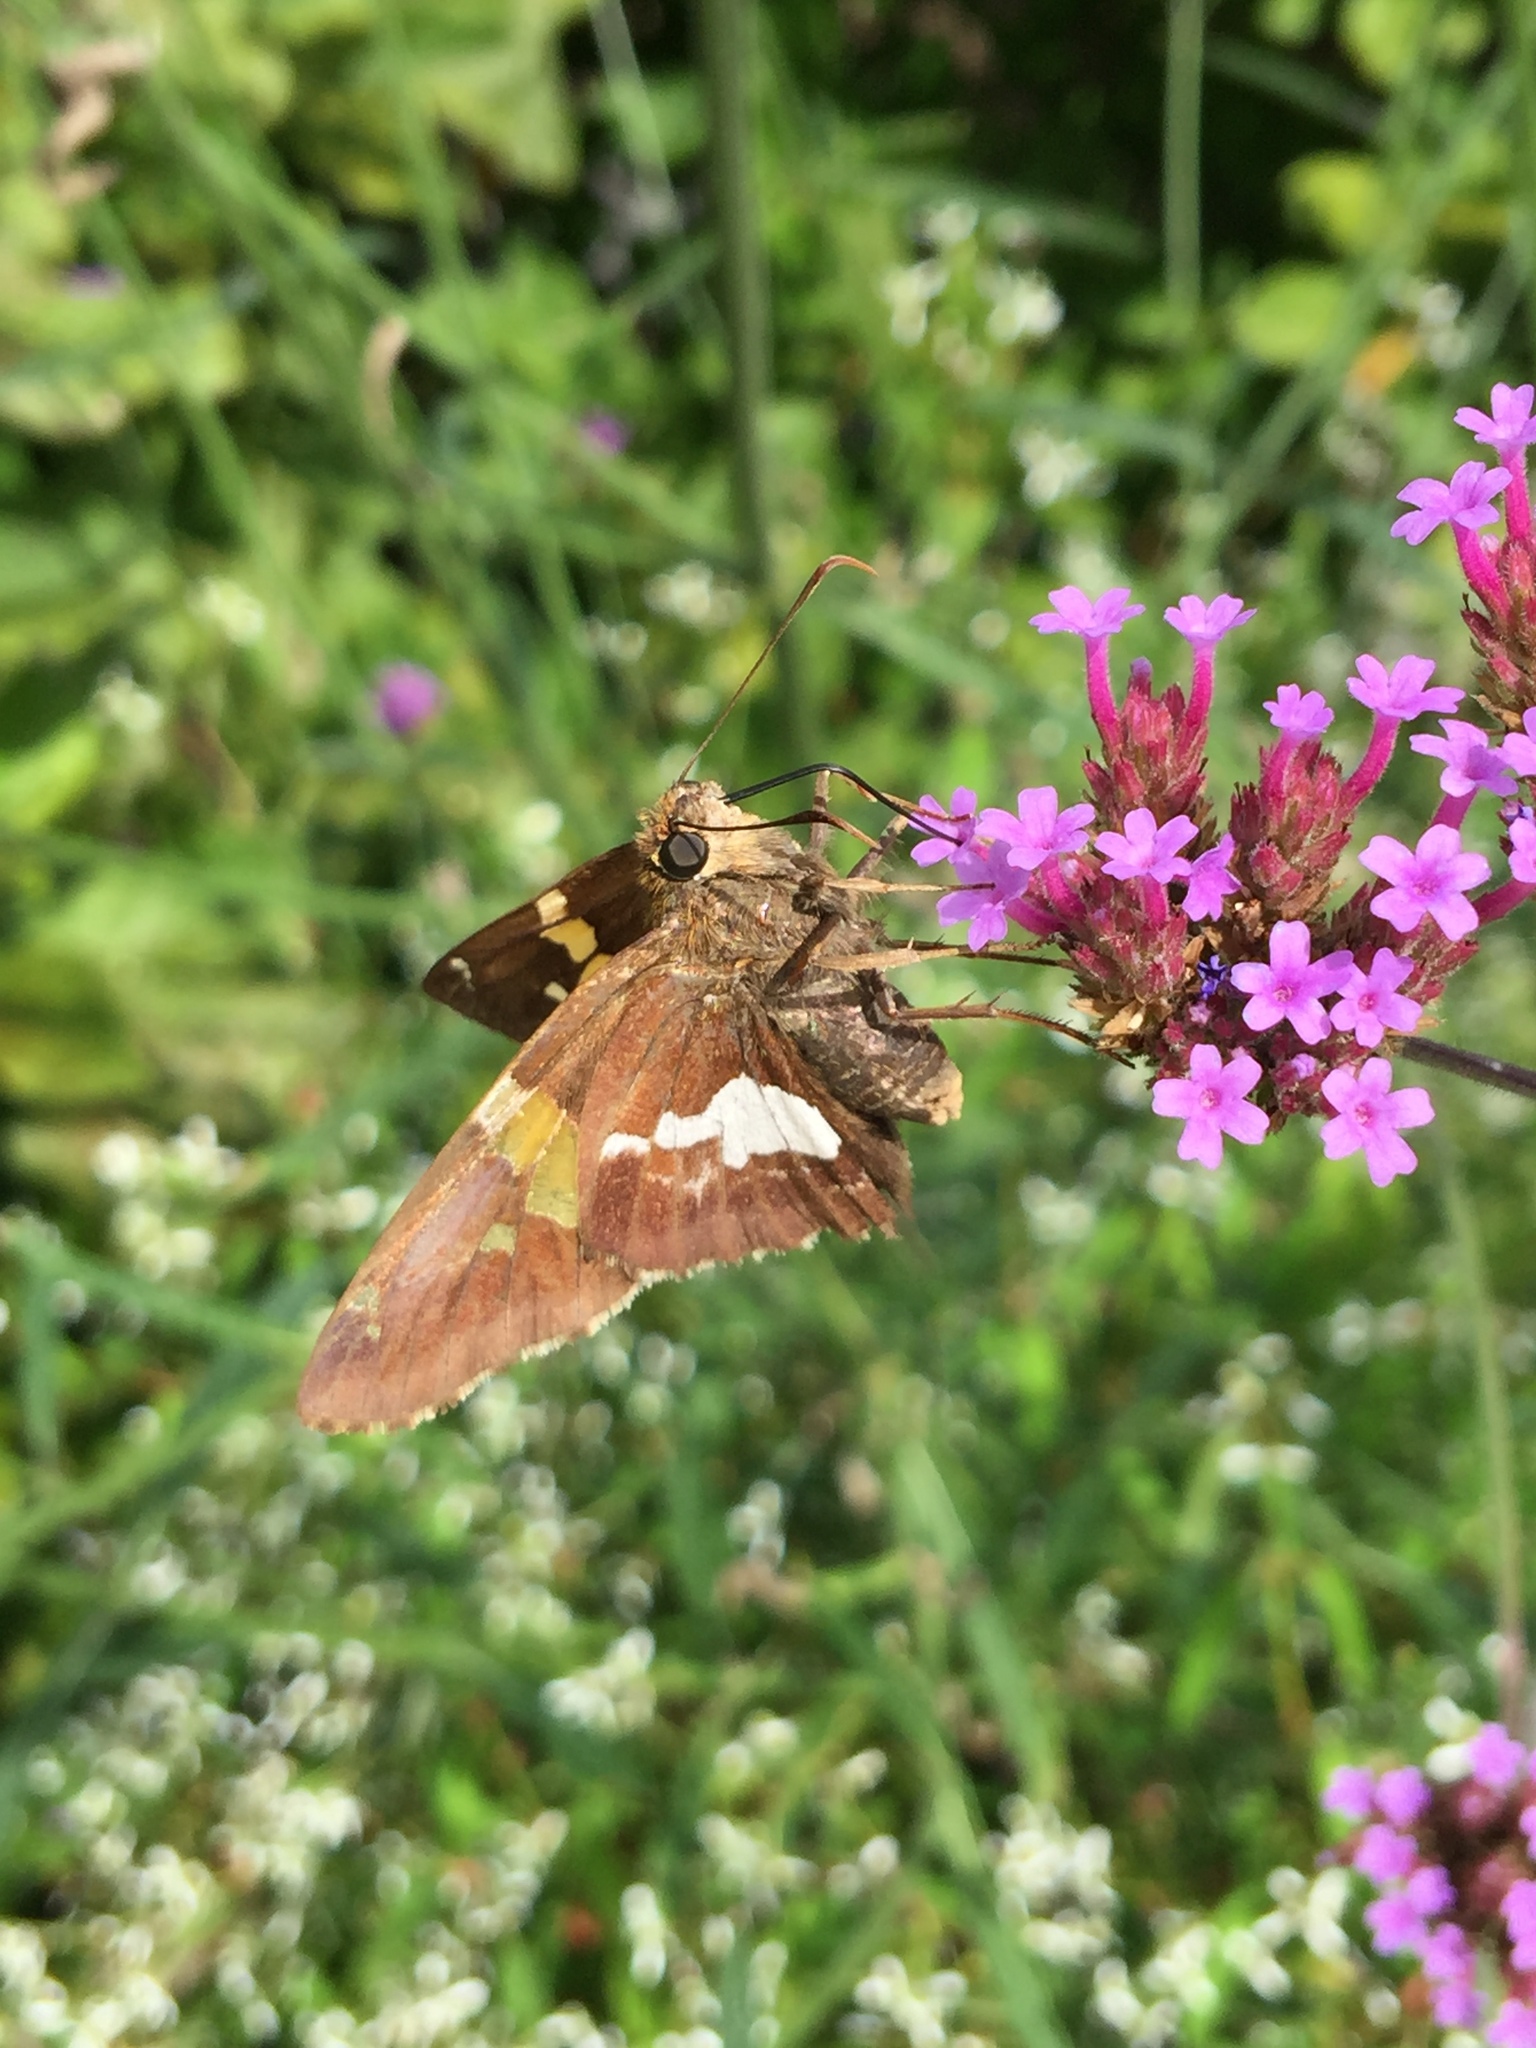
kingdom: Animalia
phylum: Arthropoda
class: Insecta
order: Lepidoptera
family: Hesperiidae
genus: Epargyreus
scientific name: Epargyreus clarus
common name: Silver-spotted skipper
